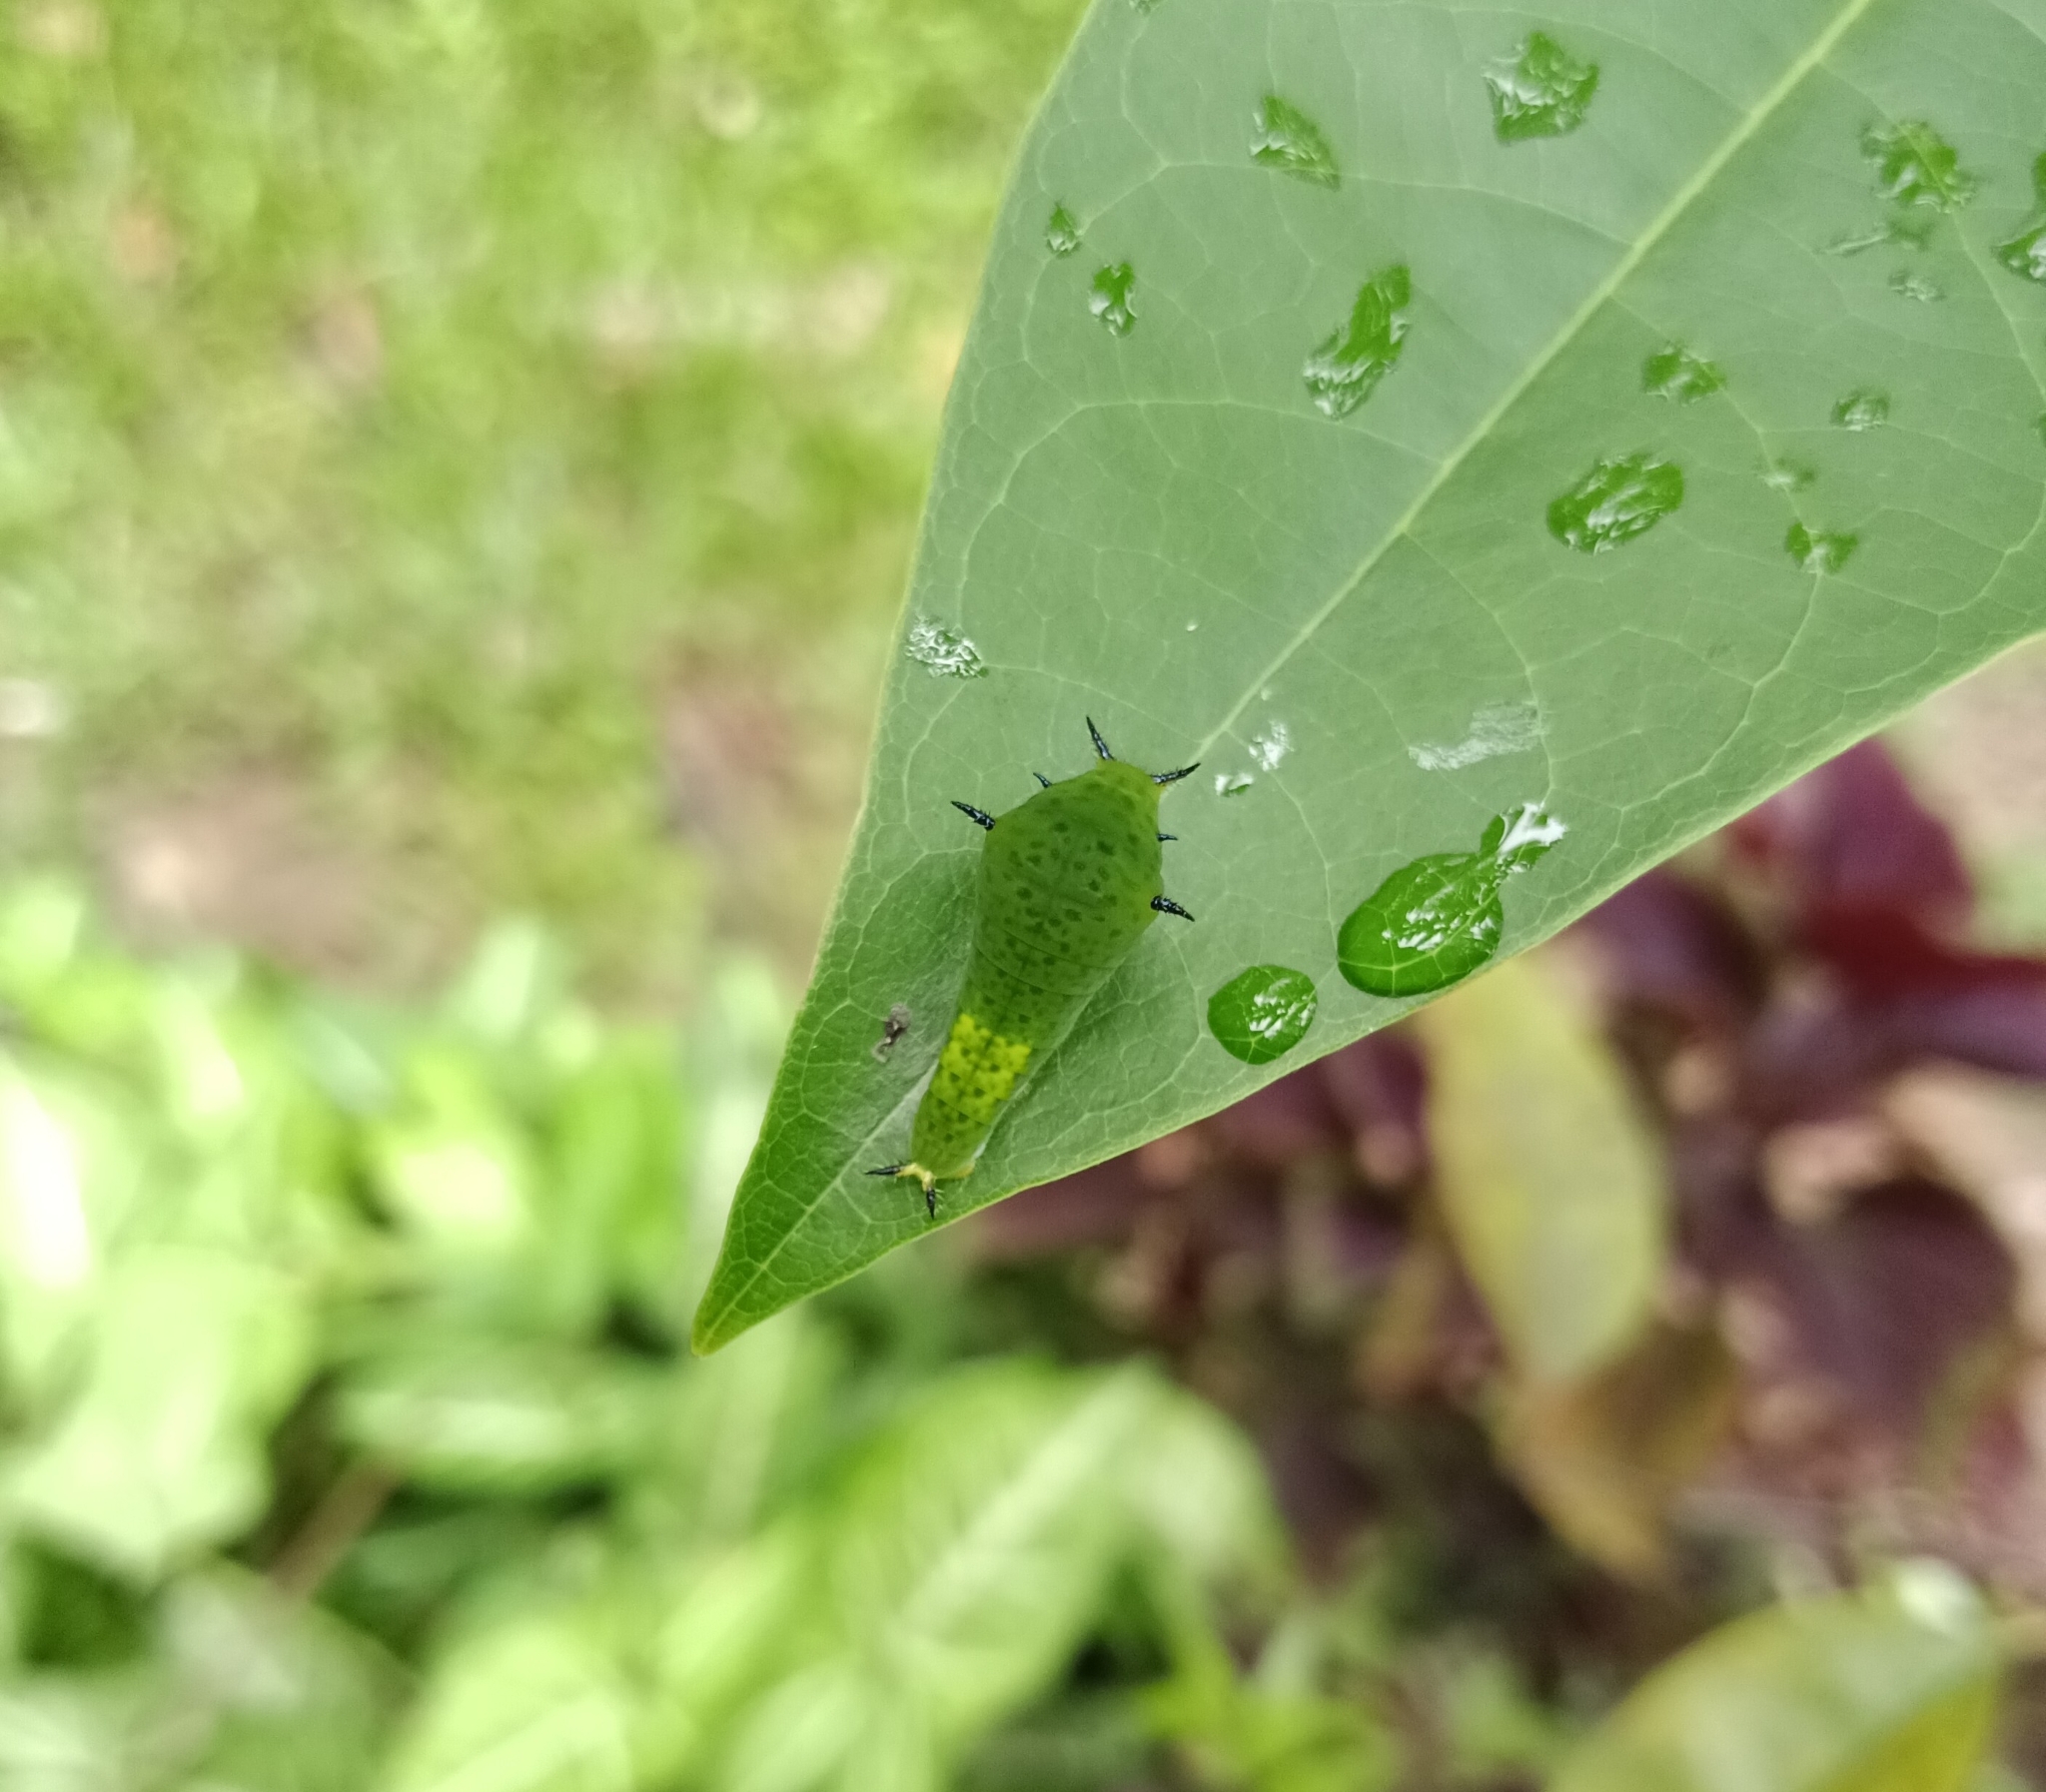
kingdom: Animalia
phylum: Arthropoda
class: Insecta
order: Lepidoptera
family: Papilionidae
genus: Graphium
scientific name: Graphium agamemnon
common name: Tailed jay
